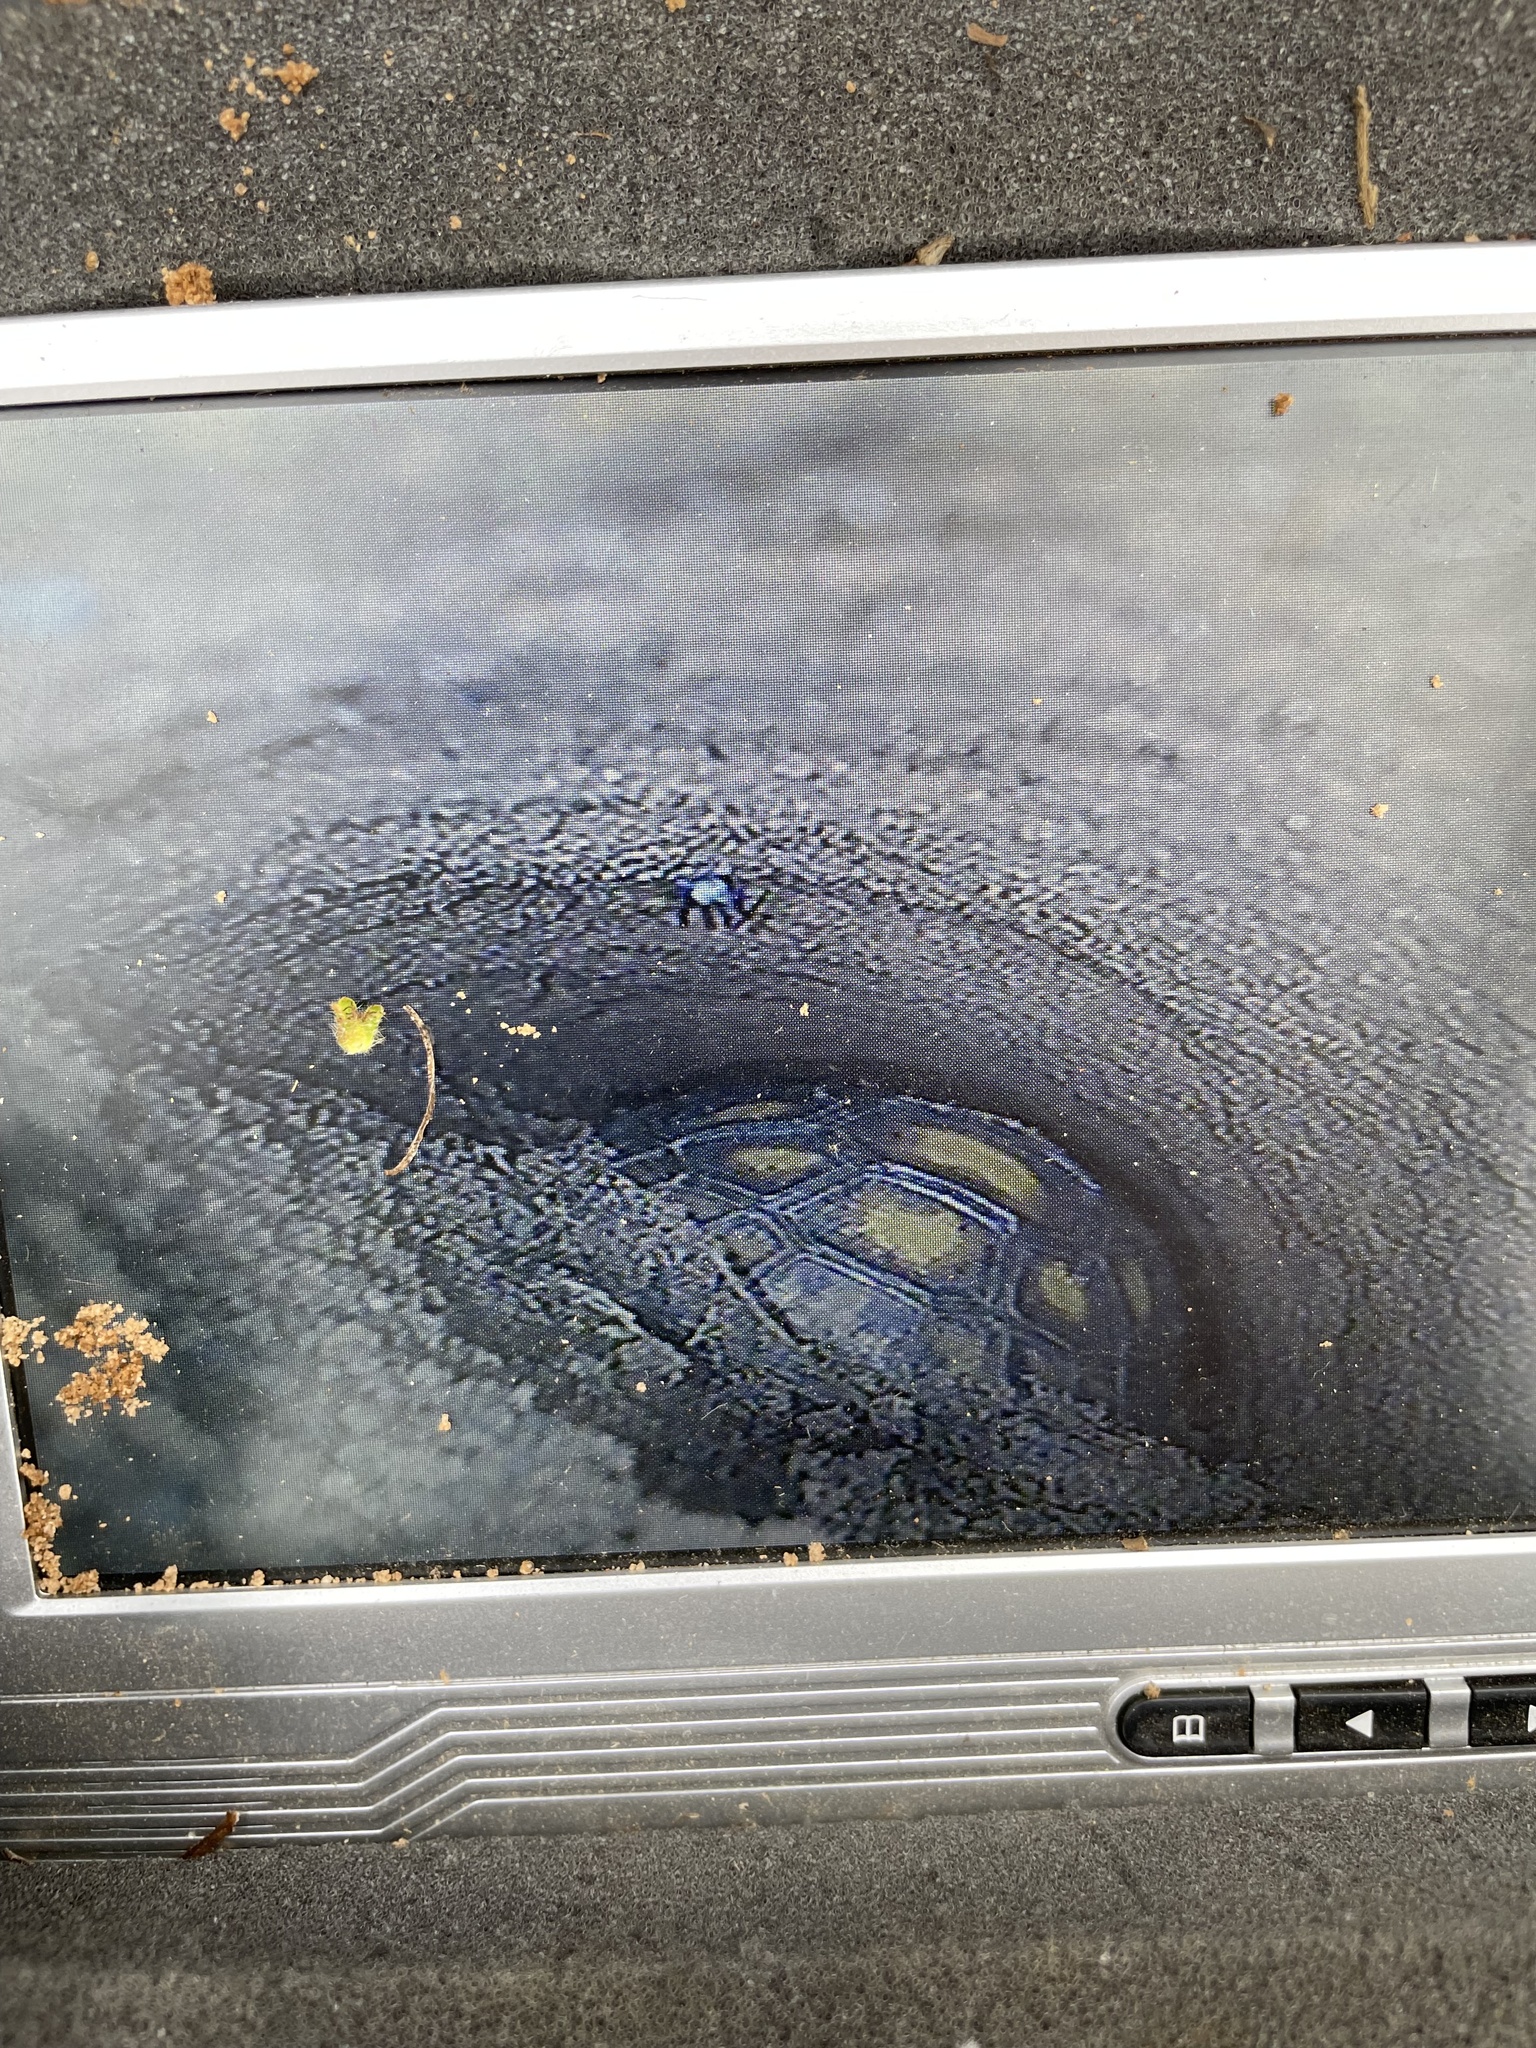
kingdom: Animalia
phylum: Chordata
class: Testudines
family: Testudinidae
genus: Gopherus
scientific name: Gopherus polyphemus
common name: Florida gopher tortoise
